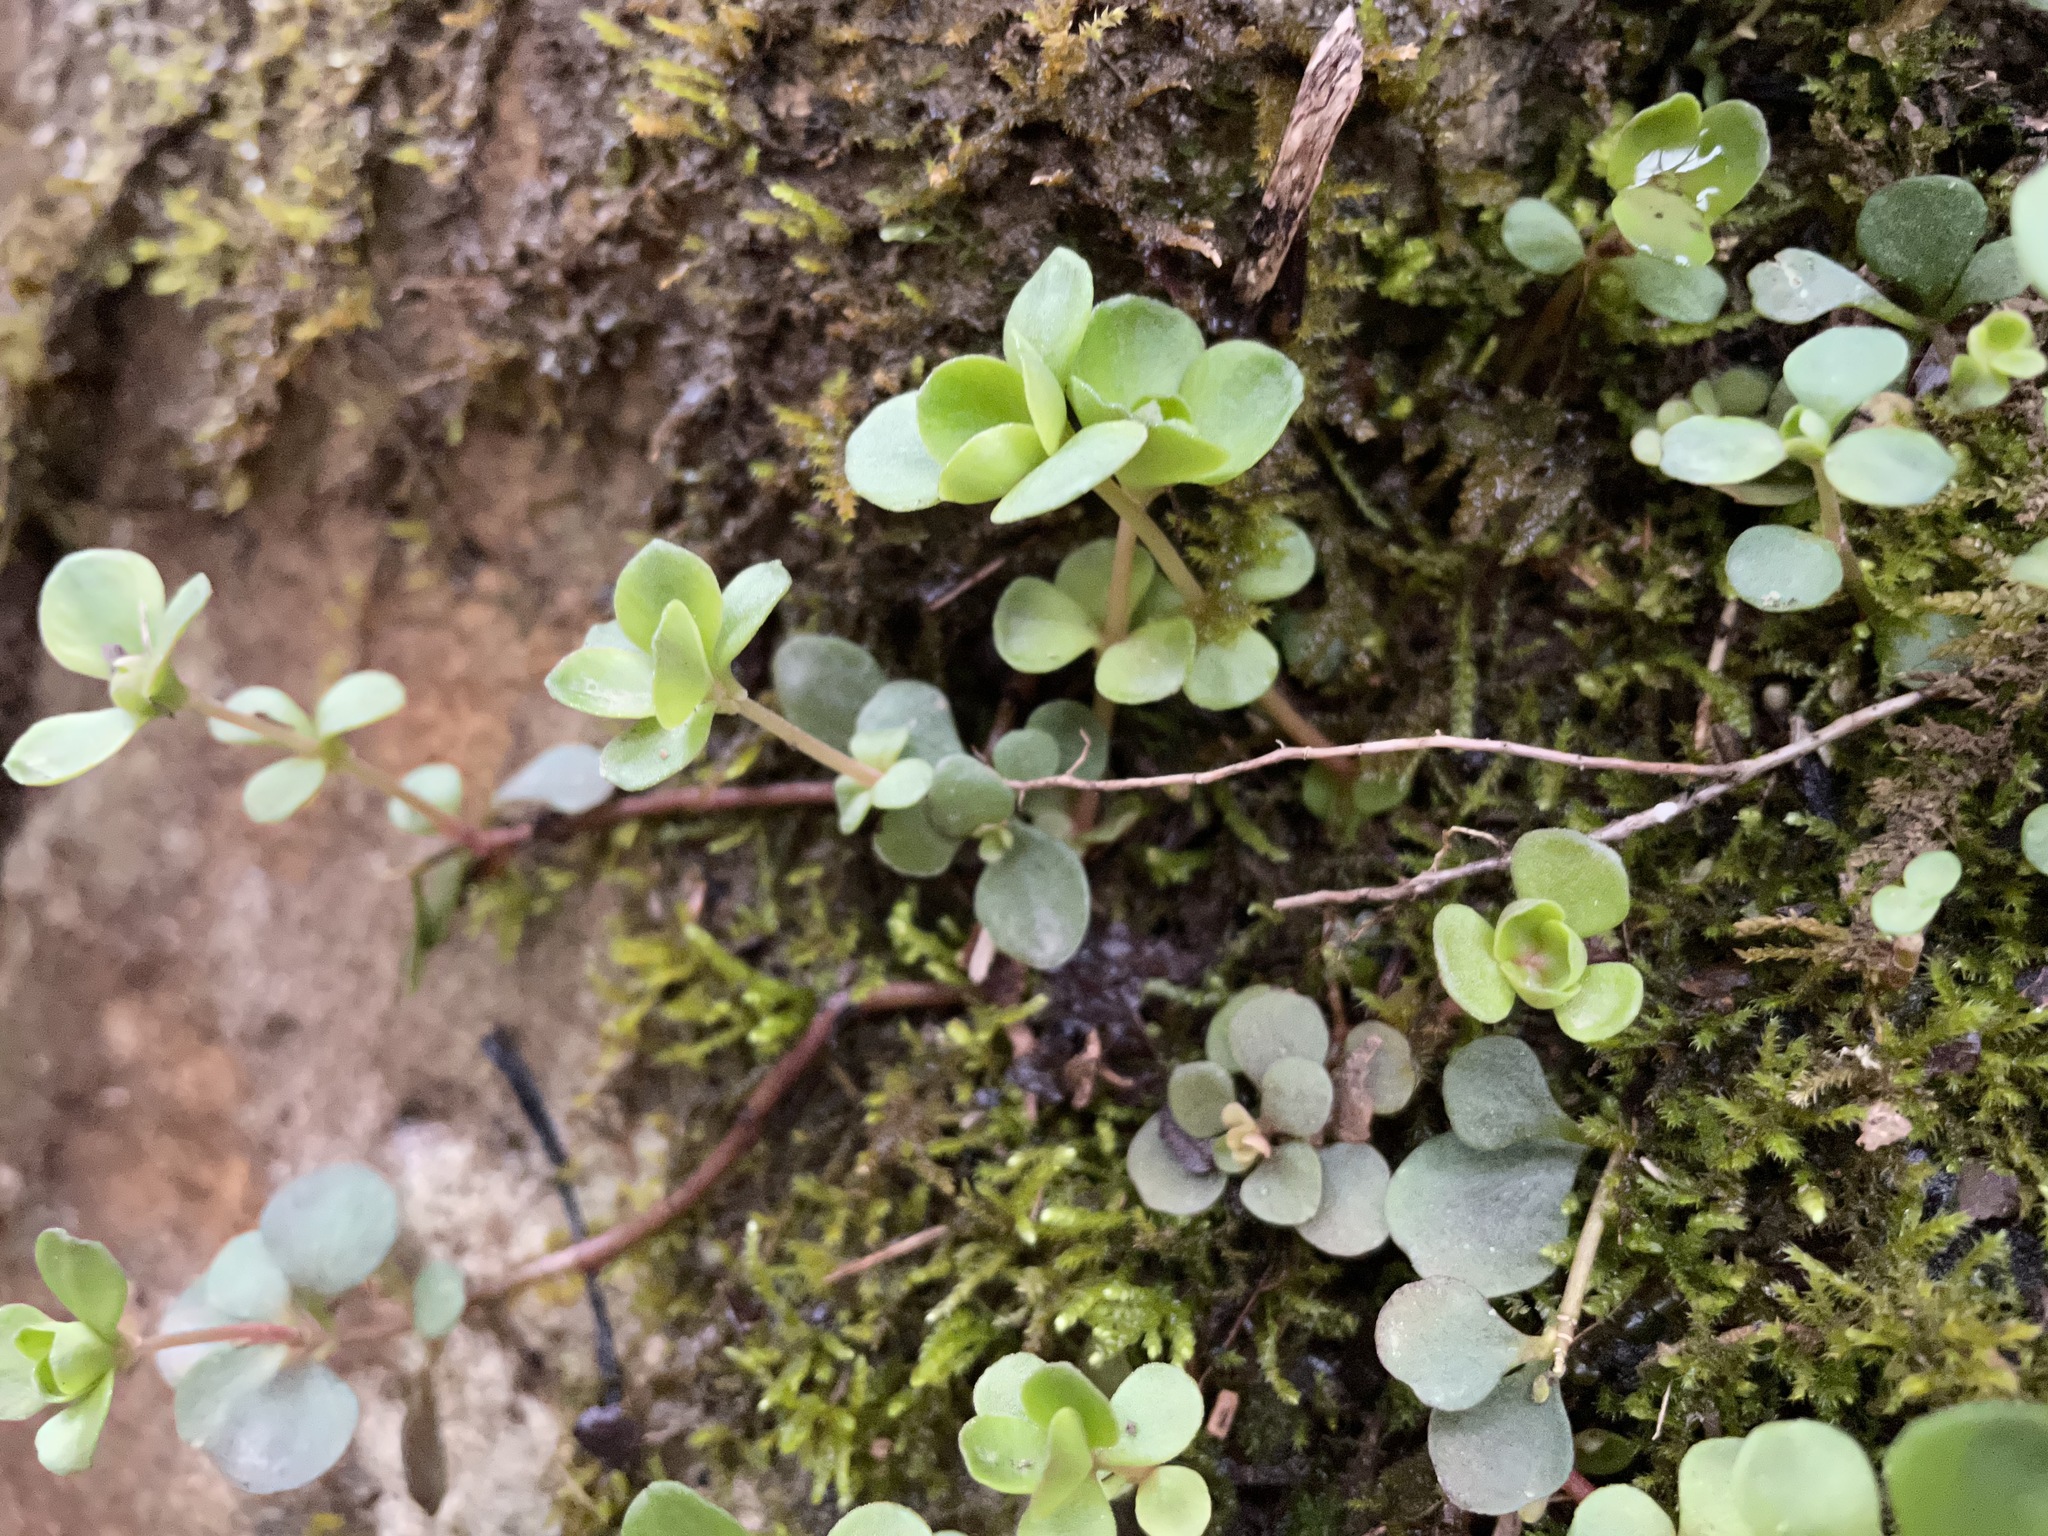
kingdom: Plantae
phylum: Tracheophyta
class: Magnoliopsida
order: Saxifragales
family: Crassulaceae
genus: Sedum
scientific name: Sedum ternatum
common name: Wild stonecrop
